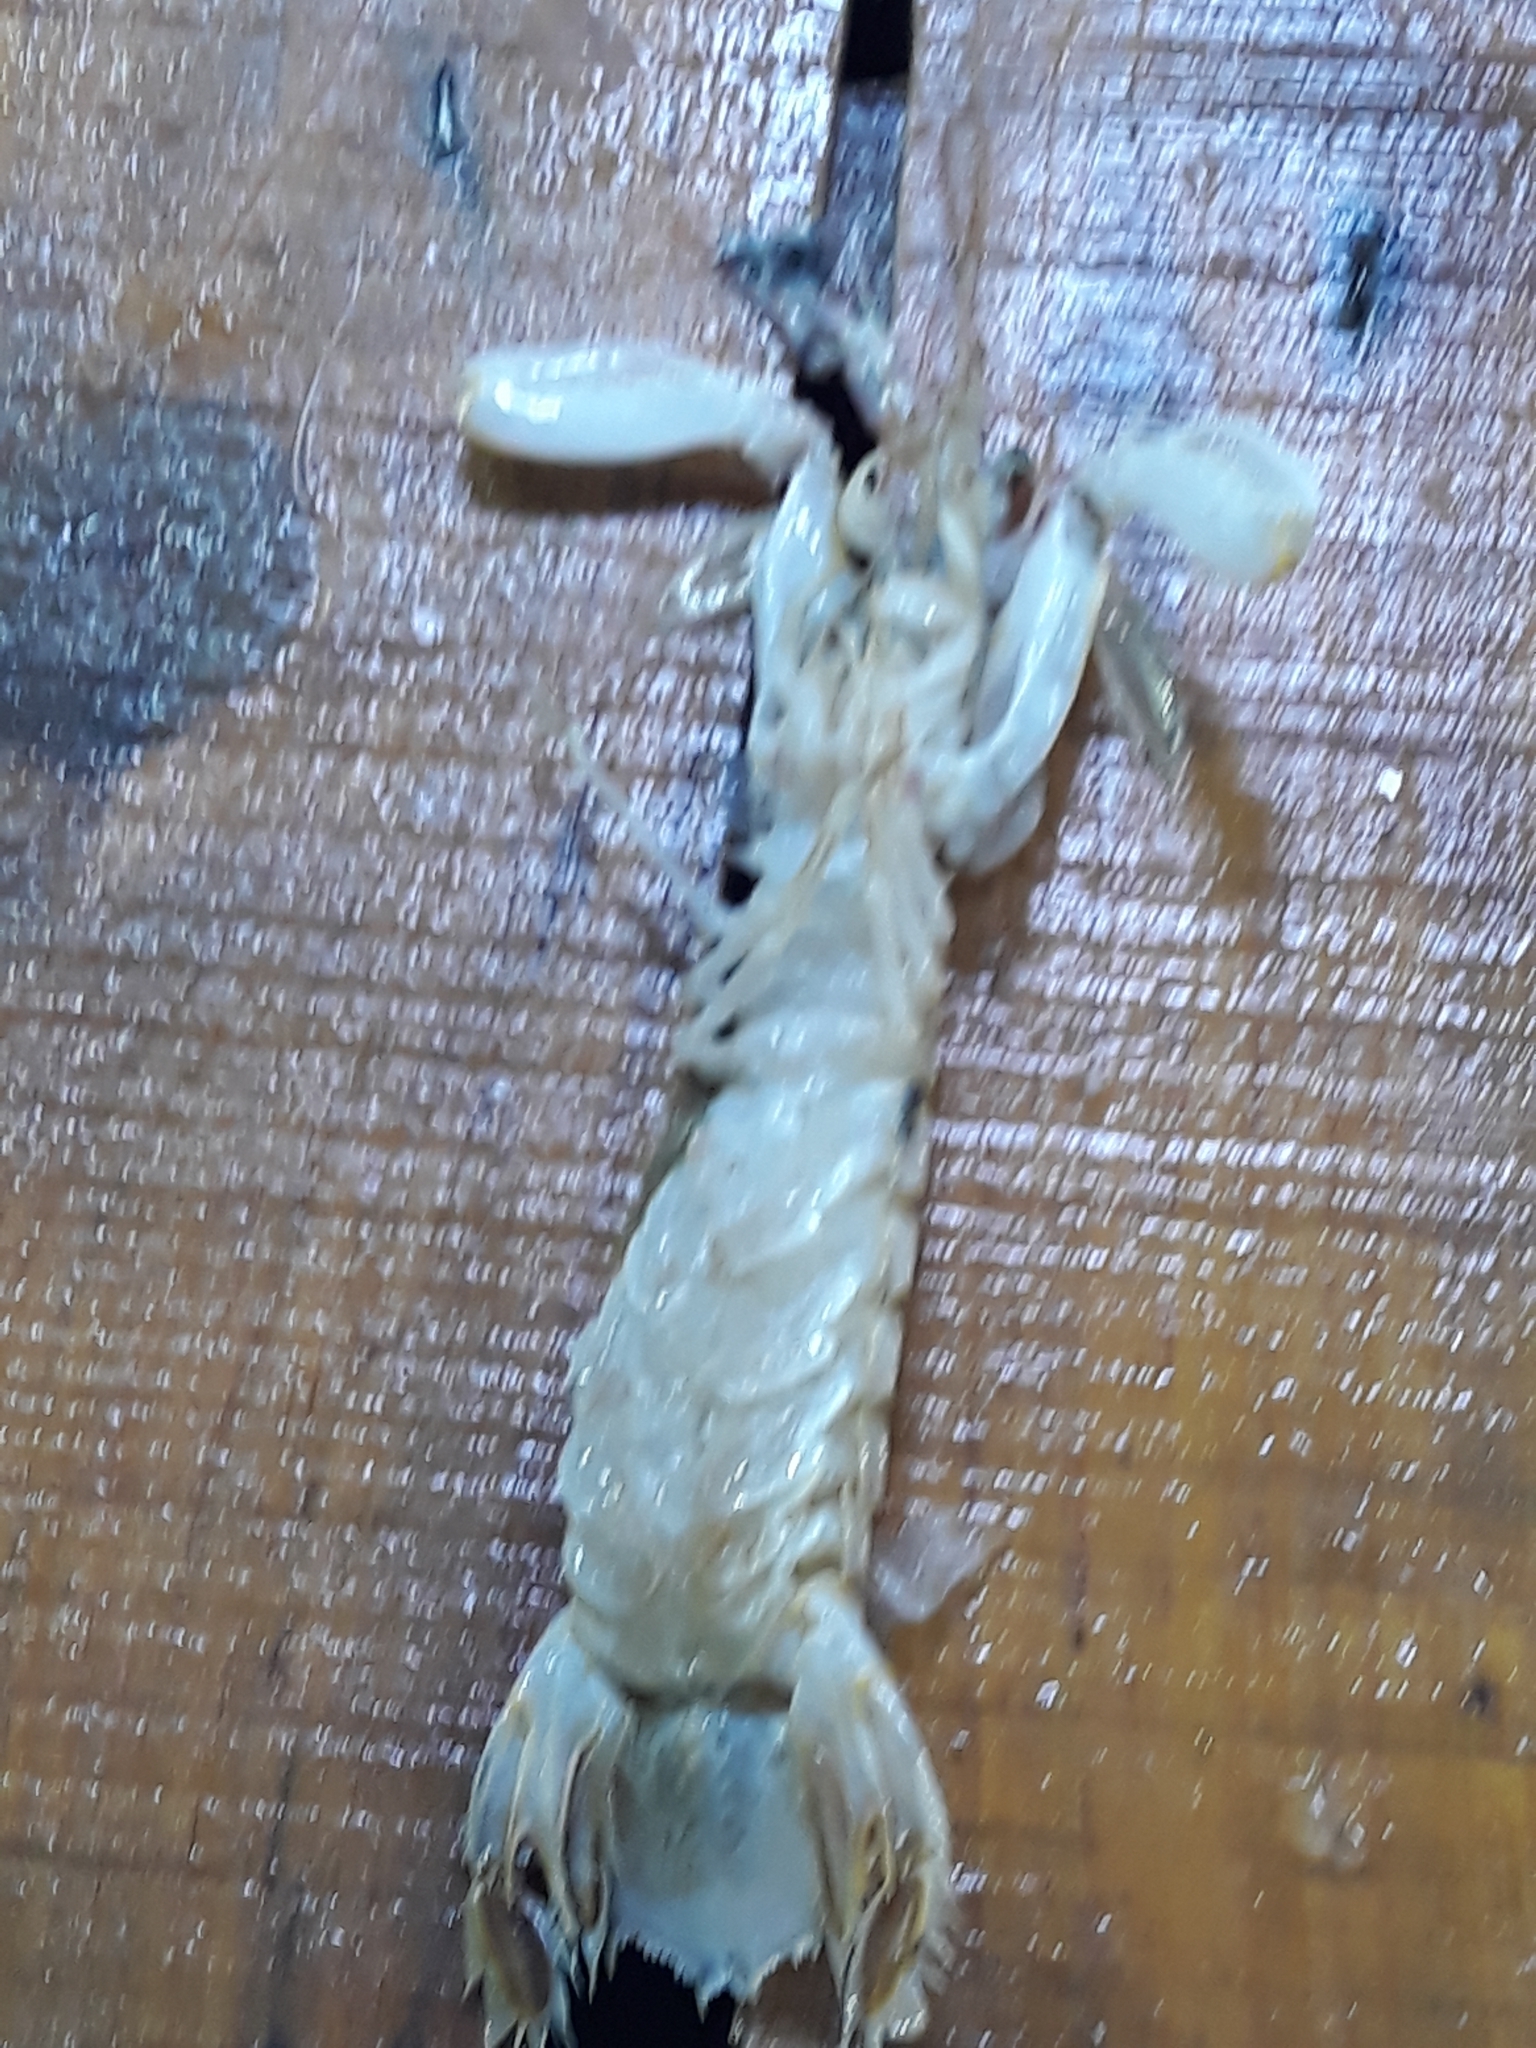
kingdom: Animalia
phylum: Arthropoda
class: Malacostraca
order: Stomatopoda
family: Squillidae
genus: Squilla
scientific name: Squilla mantis
